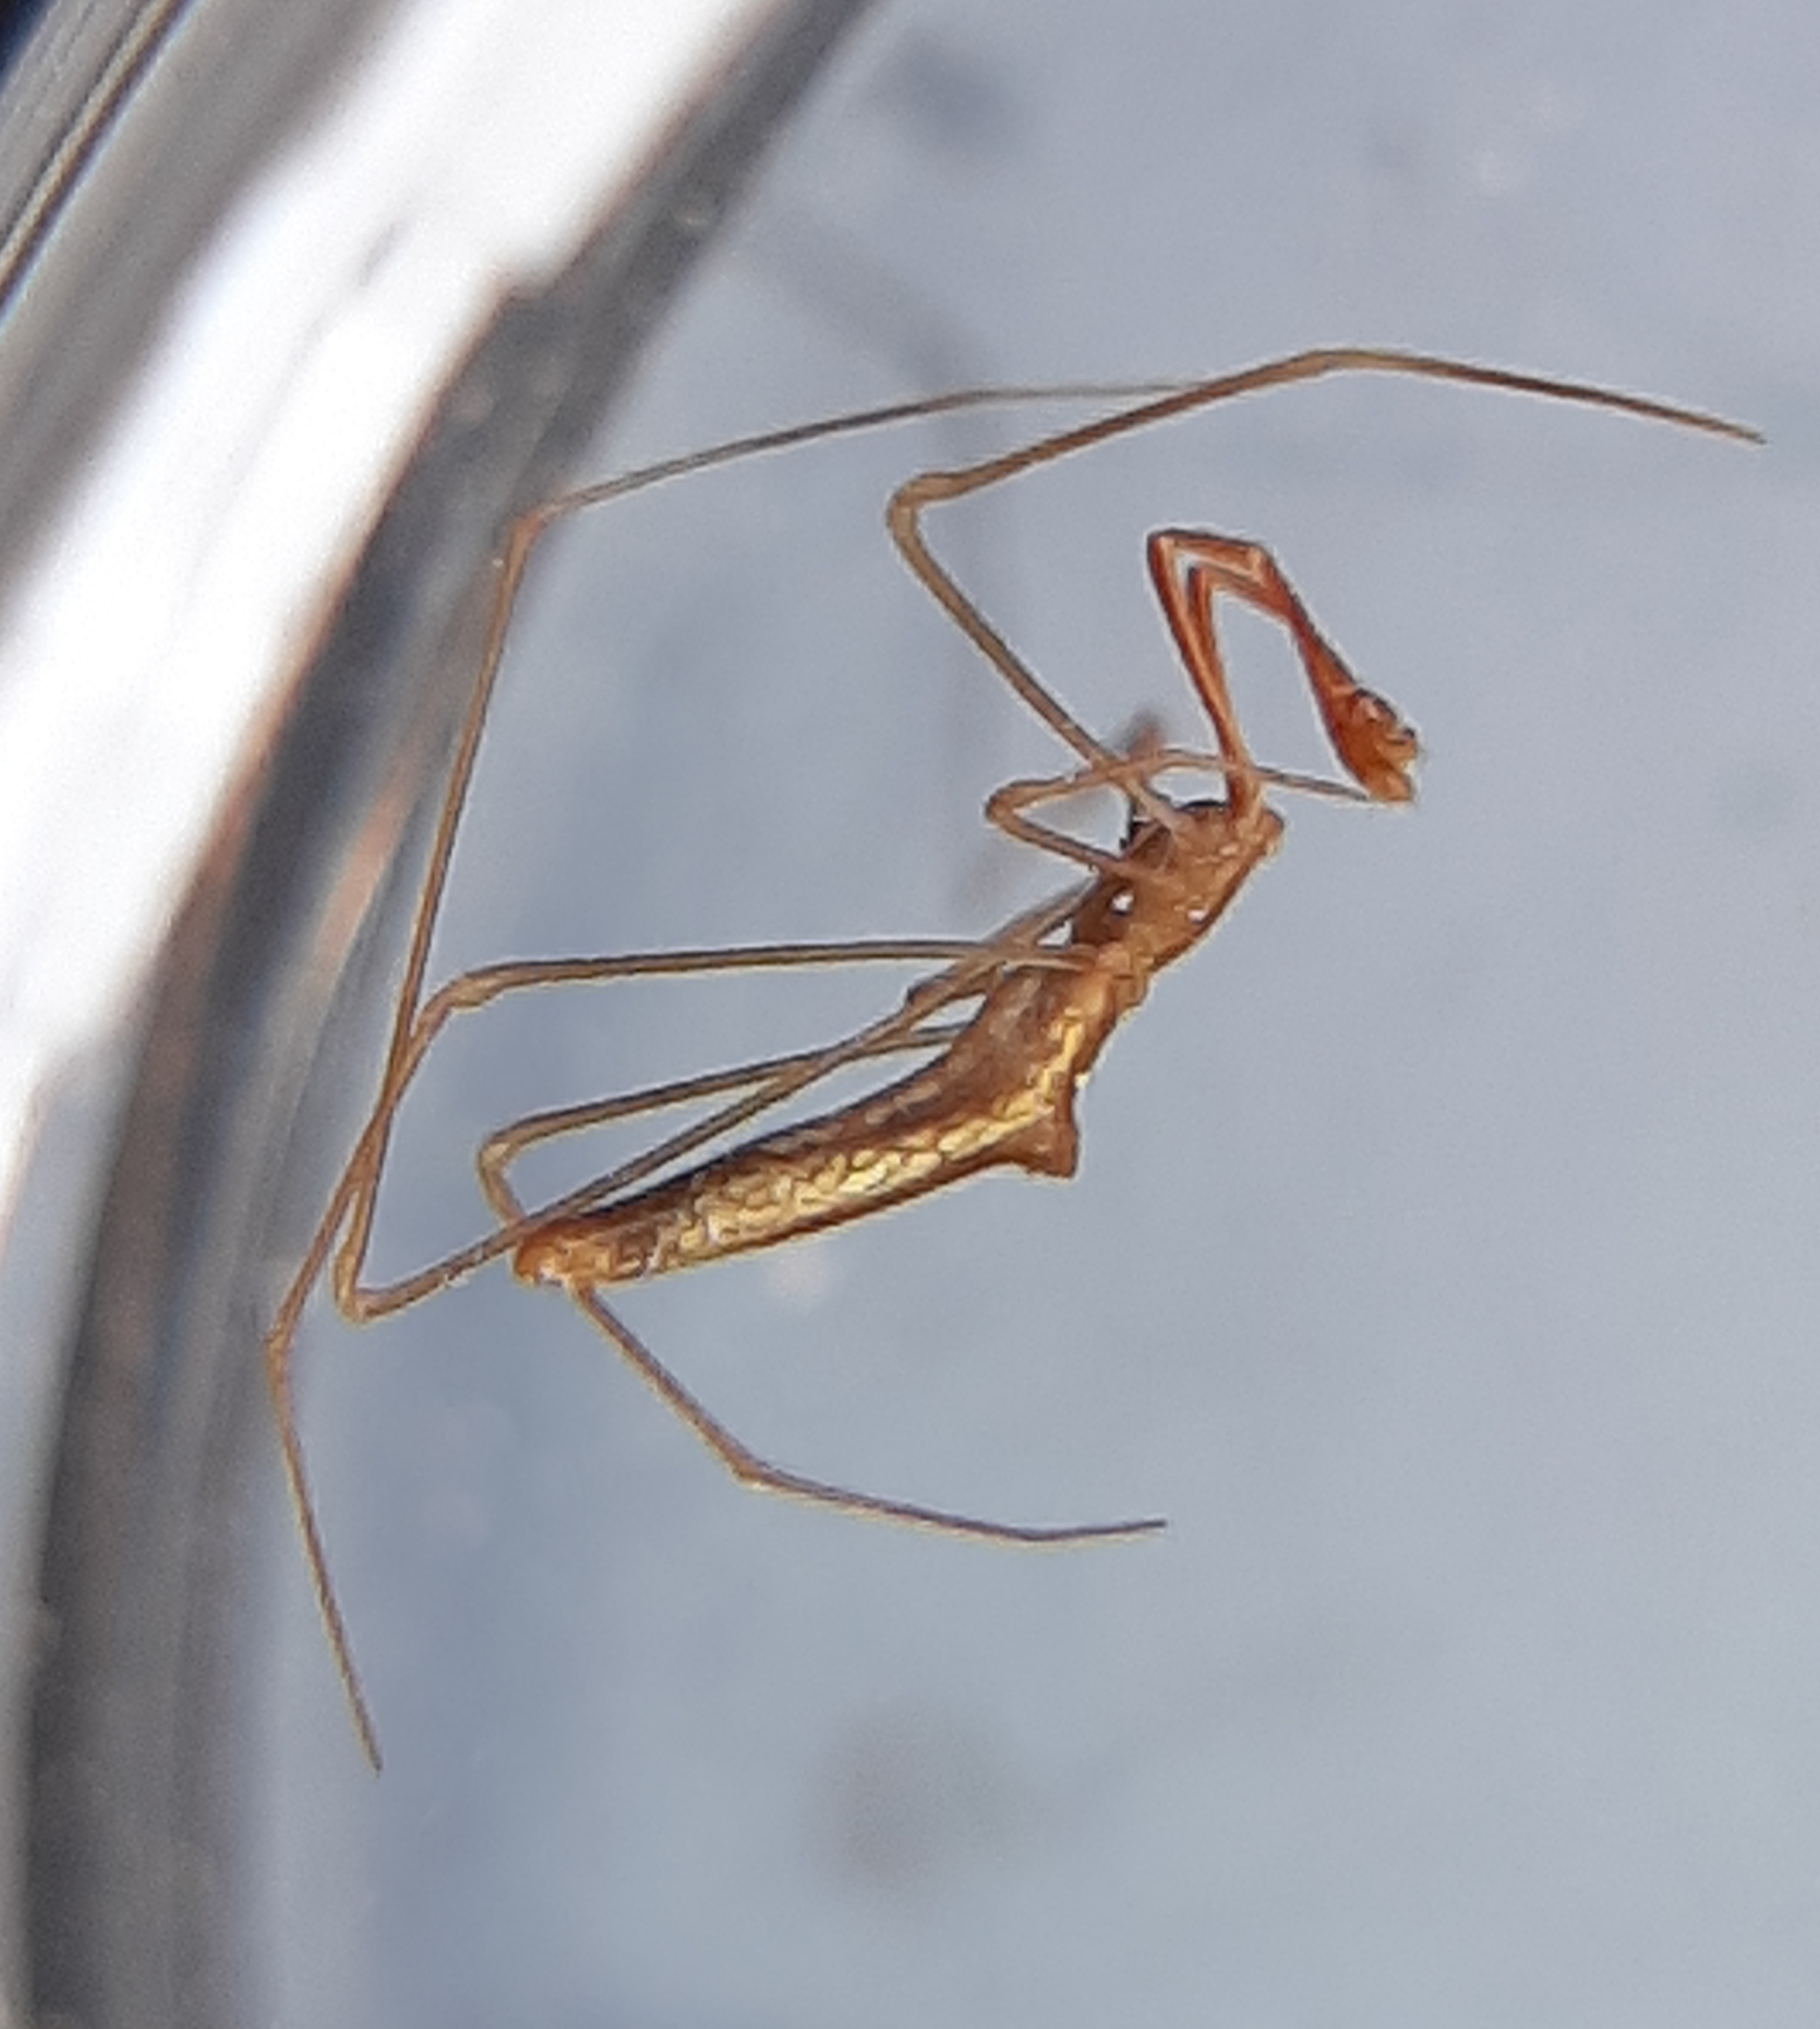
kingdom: Animalia
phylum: Arthropoda
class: Arachnida
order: Araneae
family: Theridiidae
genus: Rhomphaea
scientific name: Rhomphaea fictilium
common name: Lizard spider
